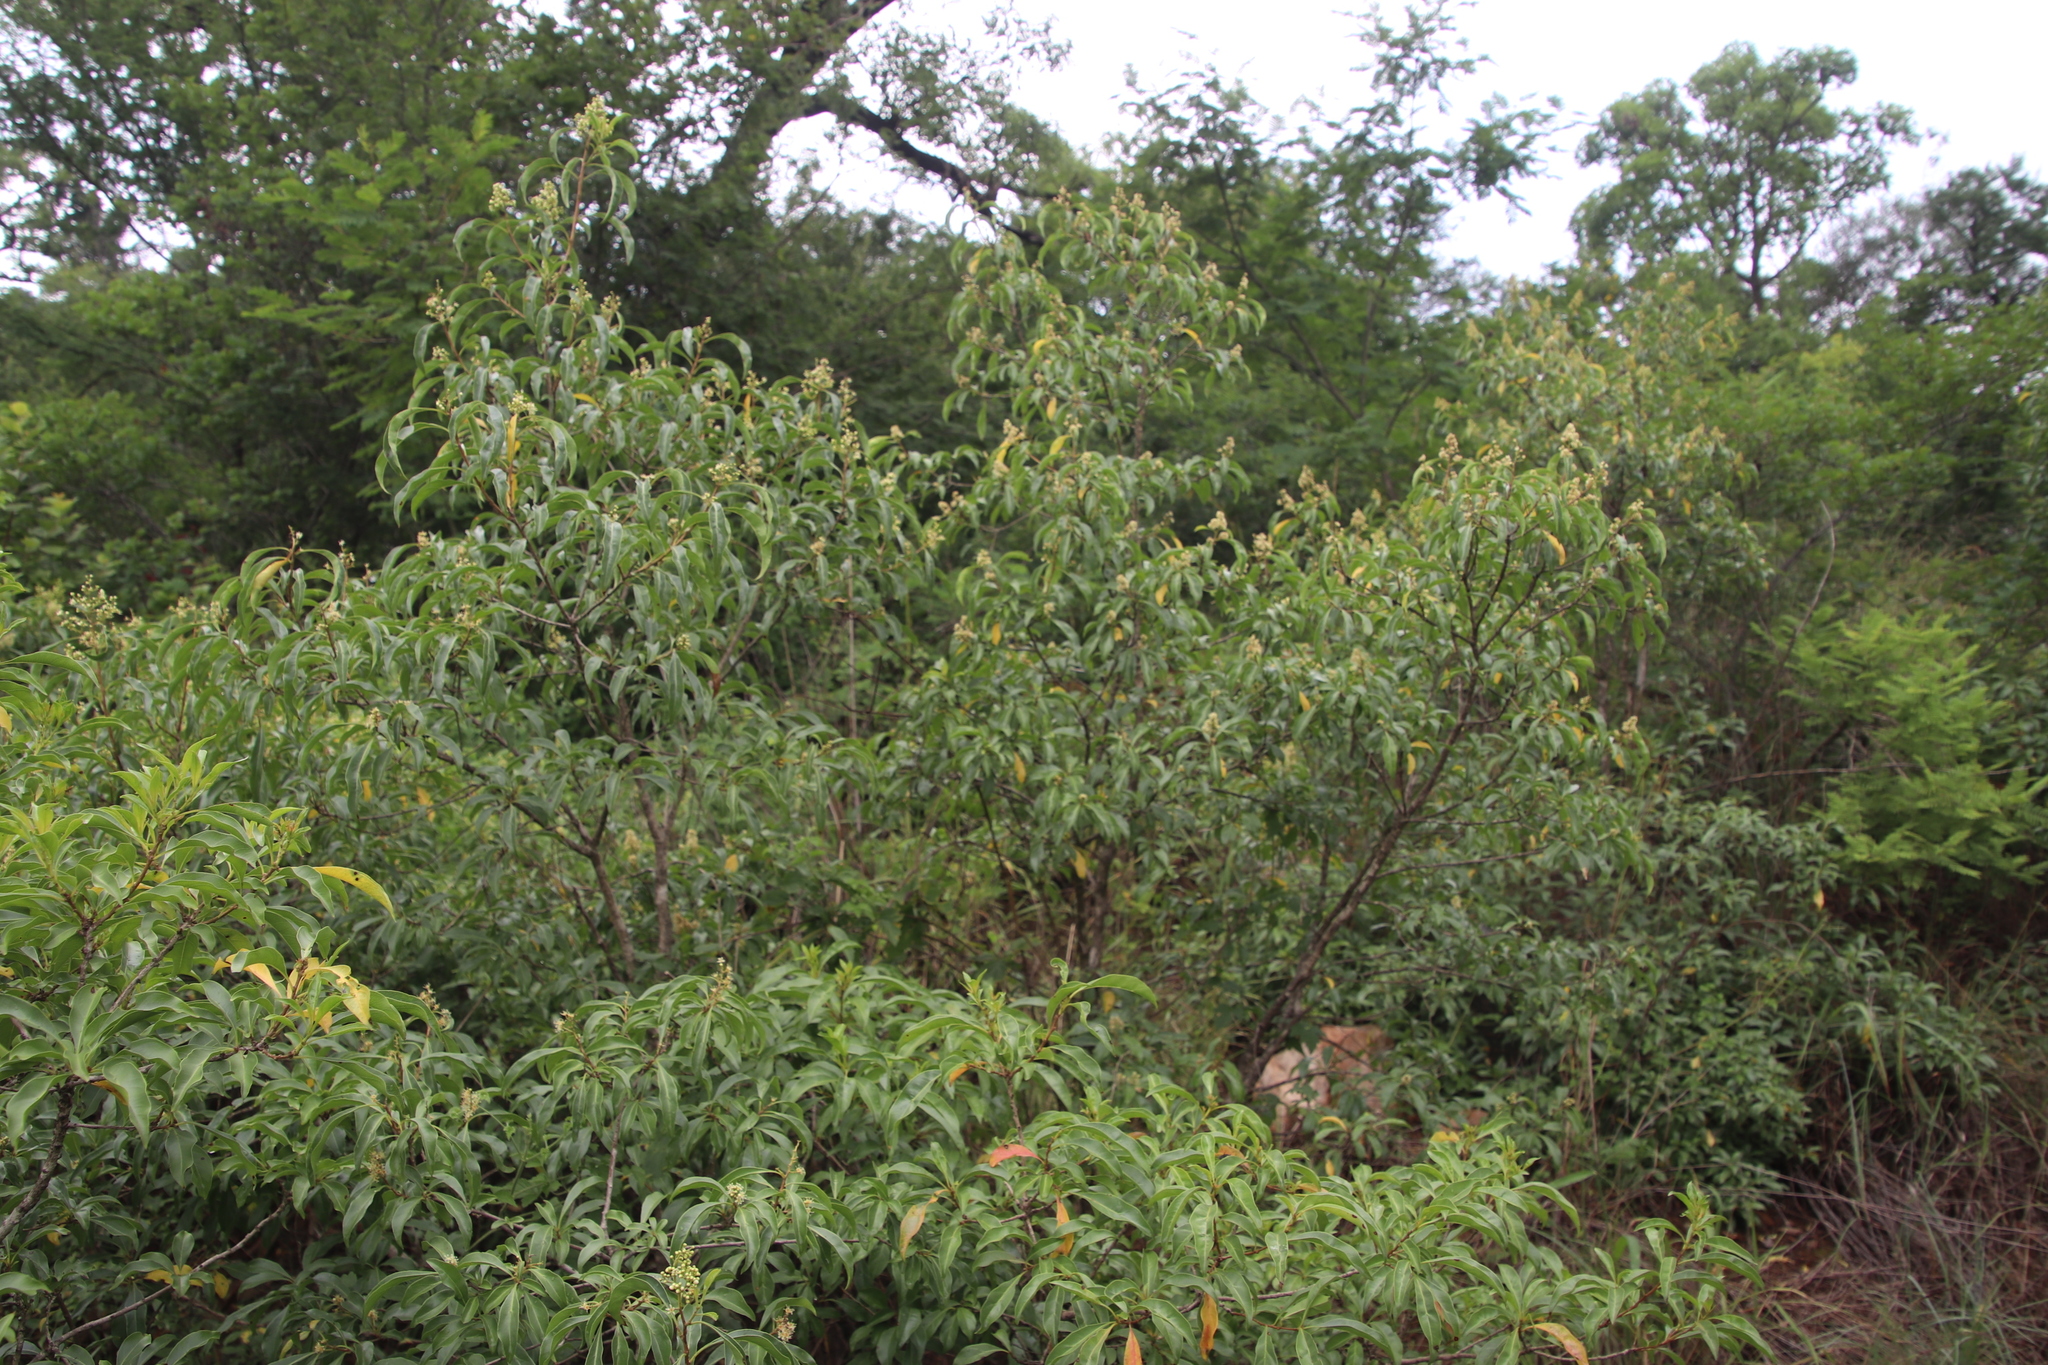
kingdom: Plantae
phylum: Tracheophyta
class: Magnoliopsida
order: Myrtales
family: Myrtaceae
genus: Heteropyxis
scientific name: Heteropyxis natalensis
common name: Lavender tree
